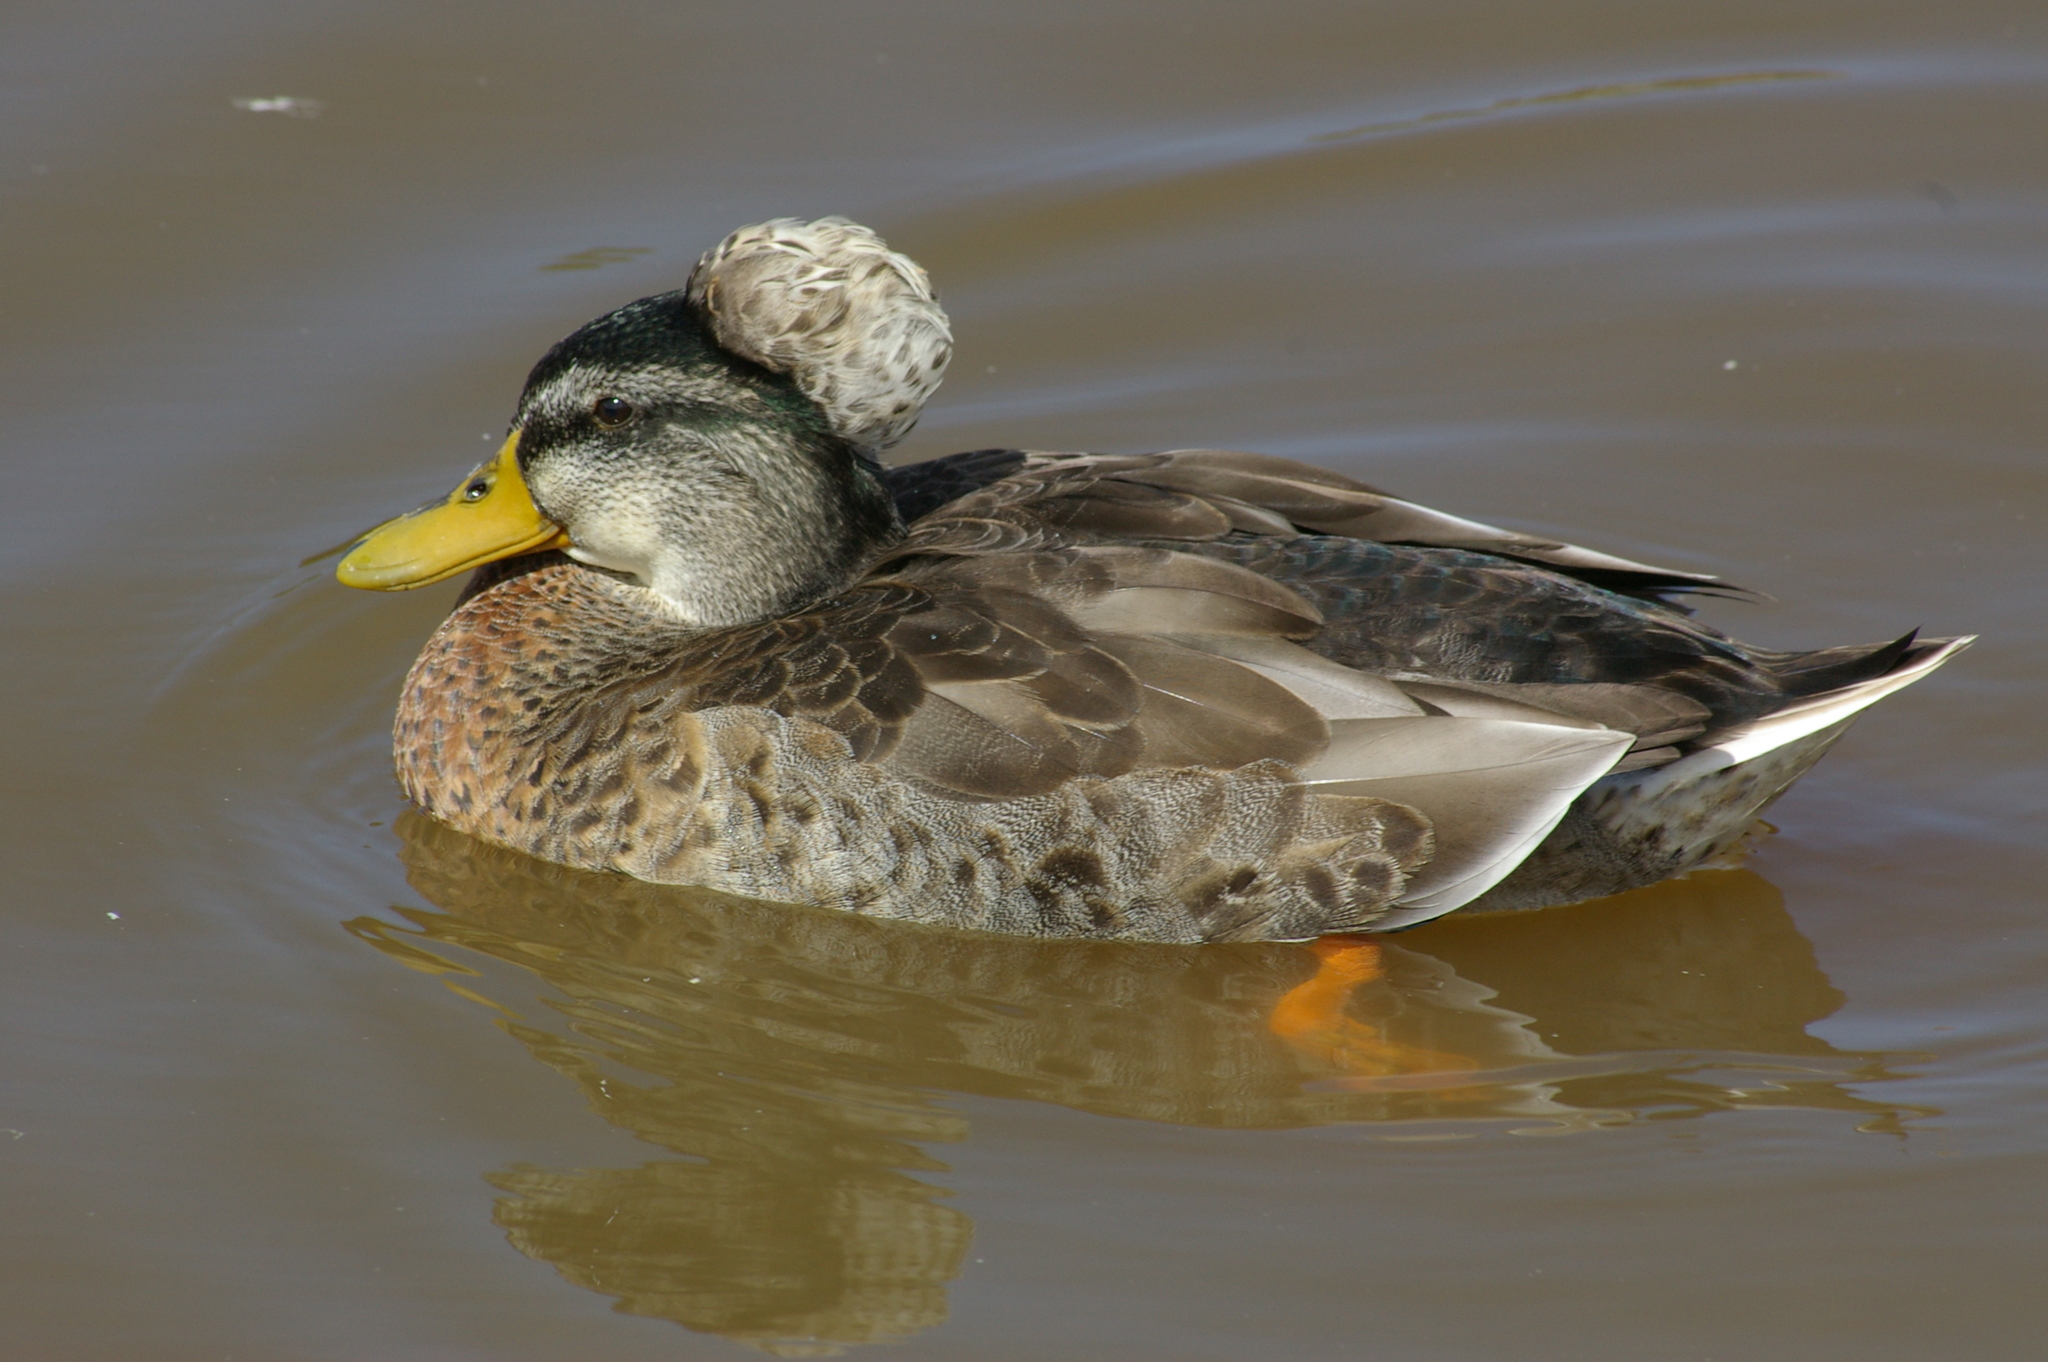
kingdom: Animalia
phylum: Chordata
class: Aves
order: Anseriformes
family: Anatidae
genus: Anas
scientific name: Anas platyrhynchos
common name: Mallard
